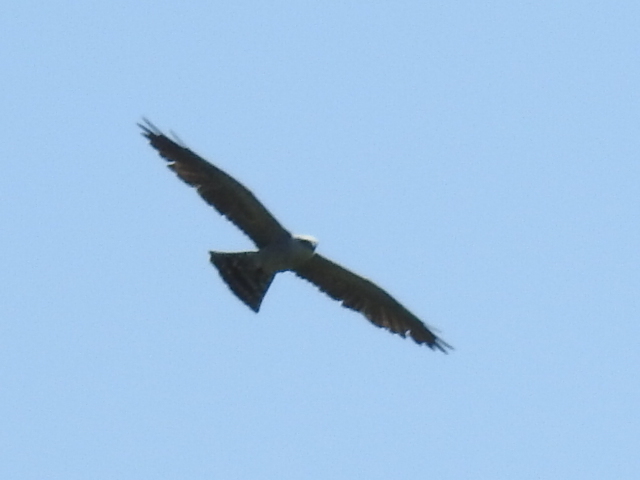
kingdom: Animalia
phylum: Chordata
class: Aves
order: Accipitriformes
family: Accipitridae
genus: Ictinia
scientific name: Ictinia mississippiensis
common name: Mississippi kite
